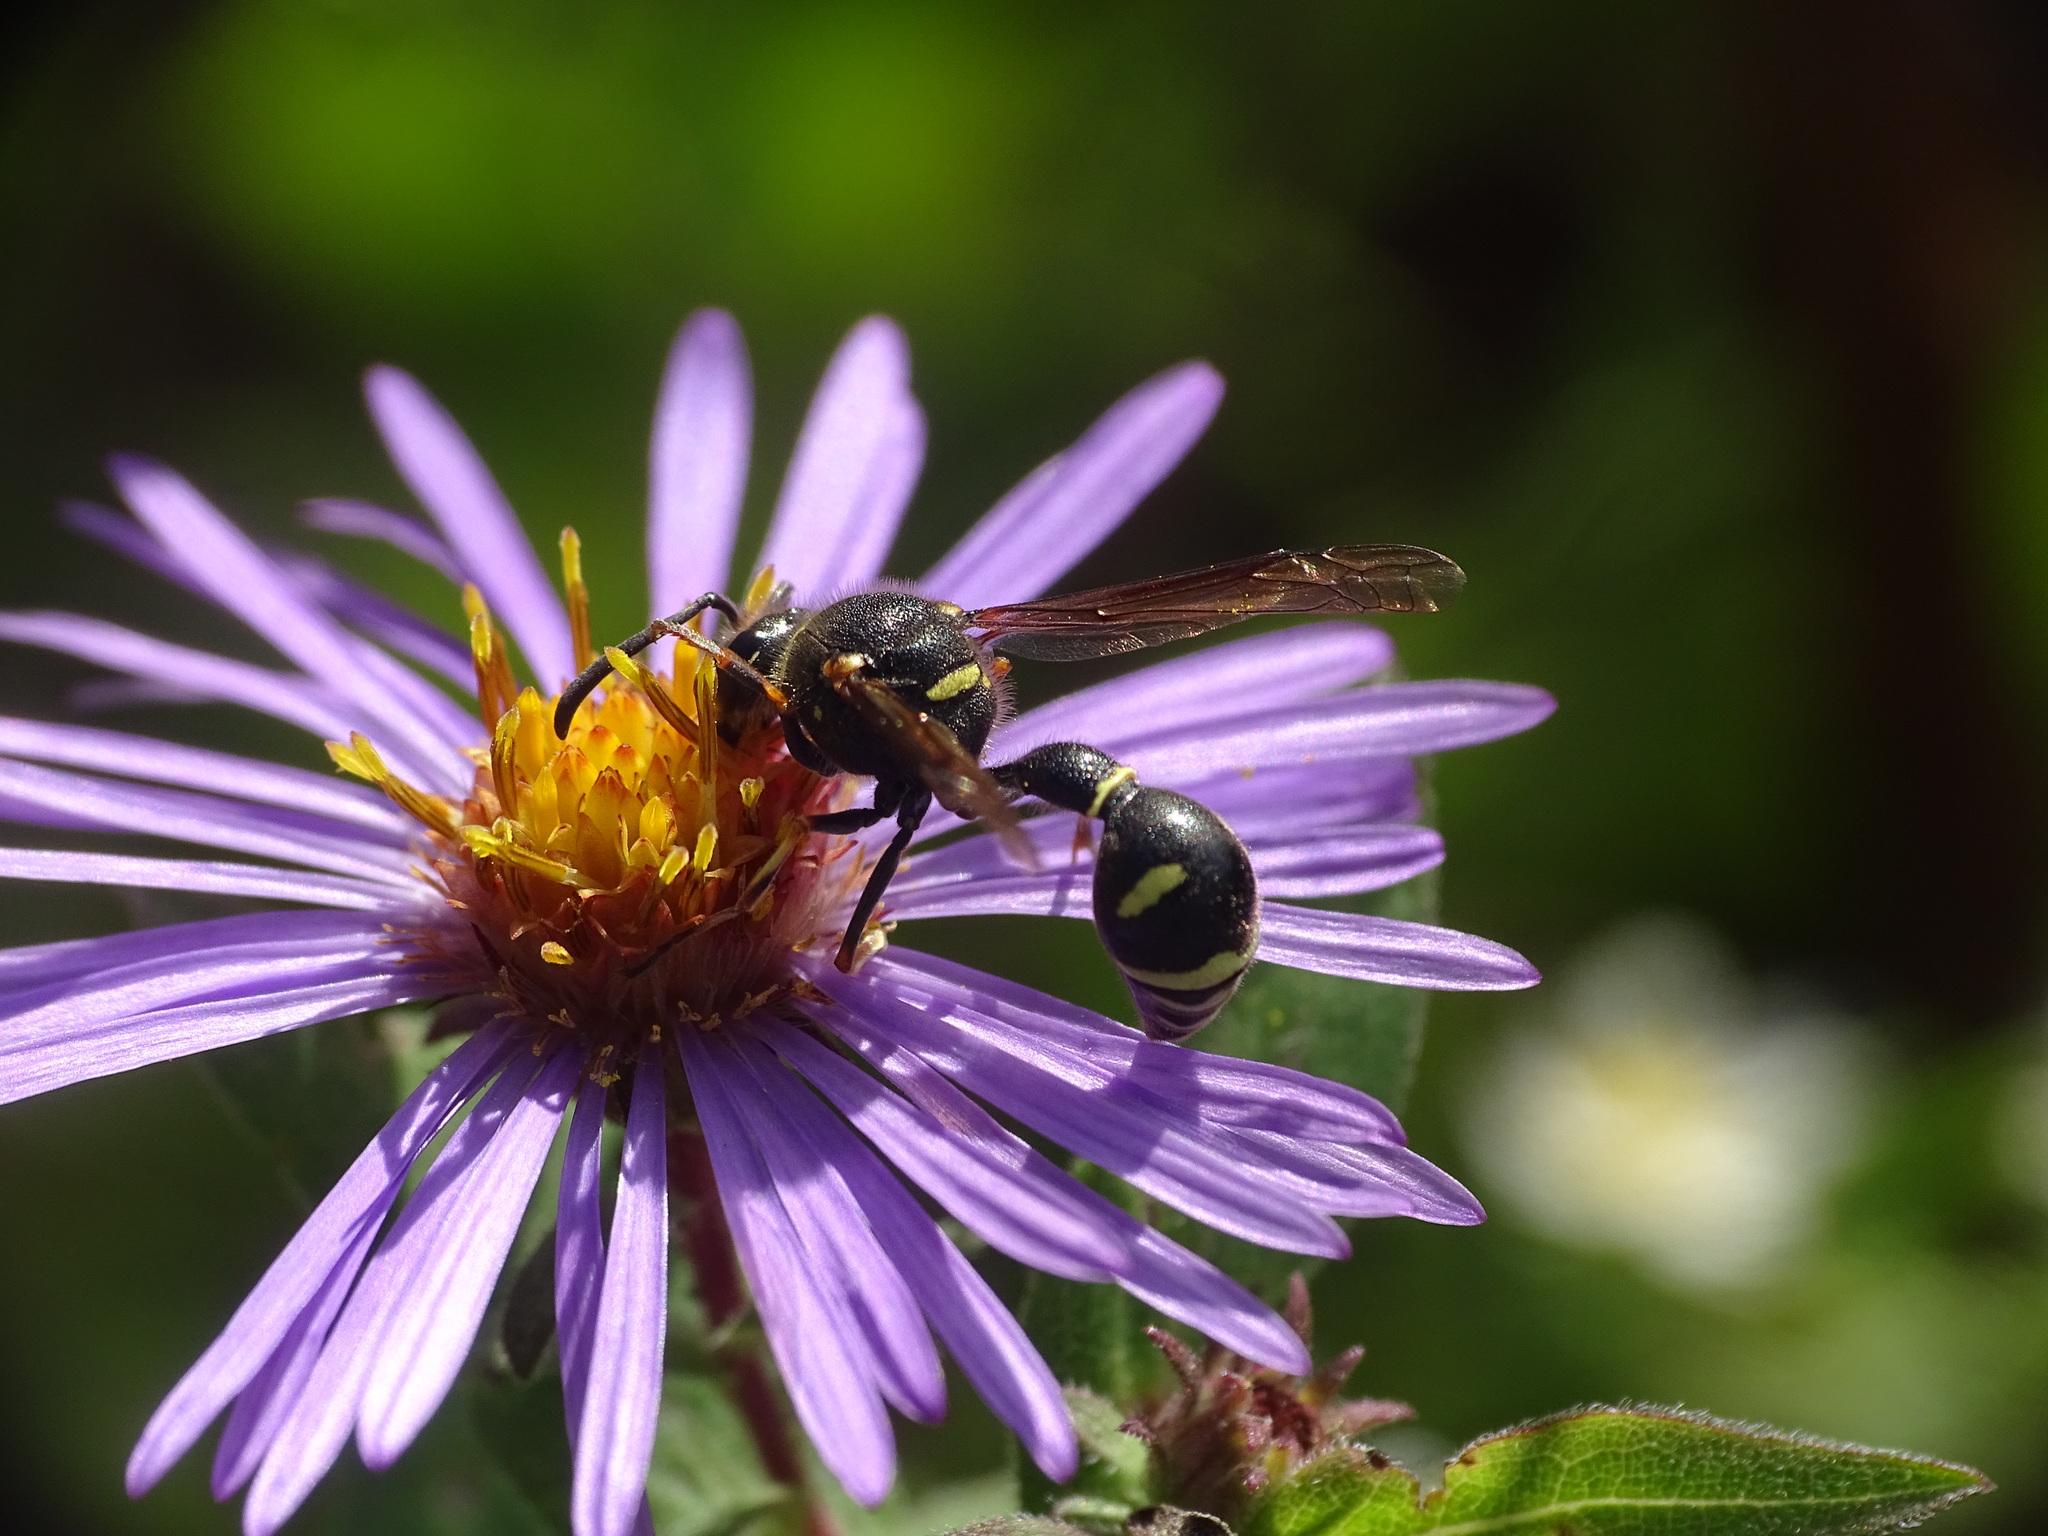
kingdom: Animalia
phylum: Arthropoda
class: Insecta
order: Hymenoptera
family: Vespidae
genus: Eumenes
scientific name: Eumenes crucifera
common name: Cross potter wasp
